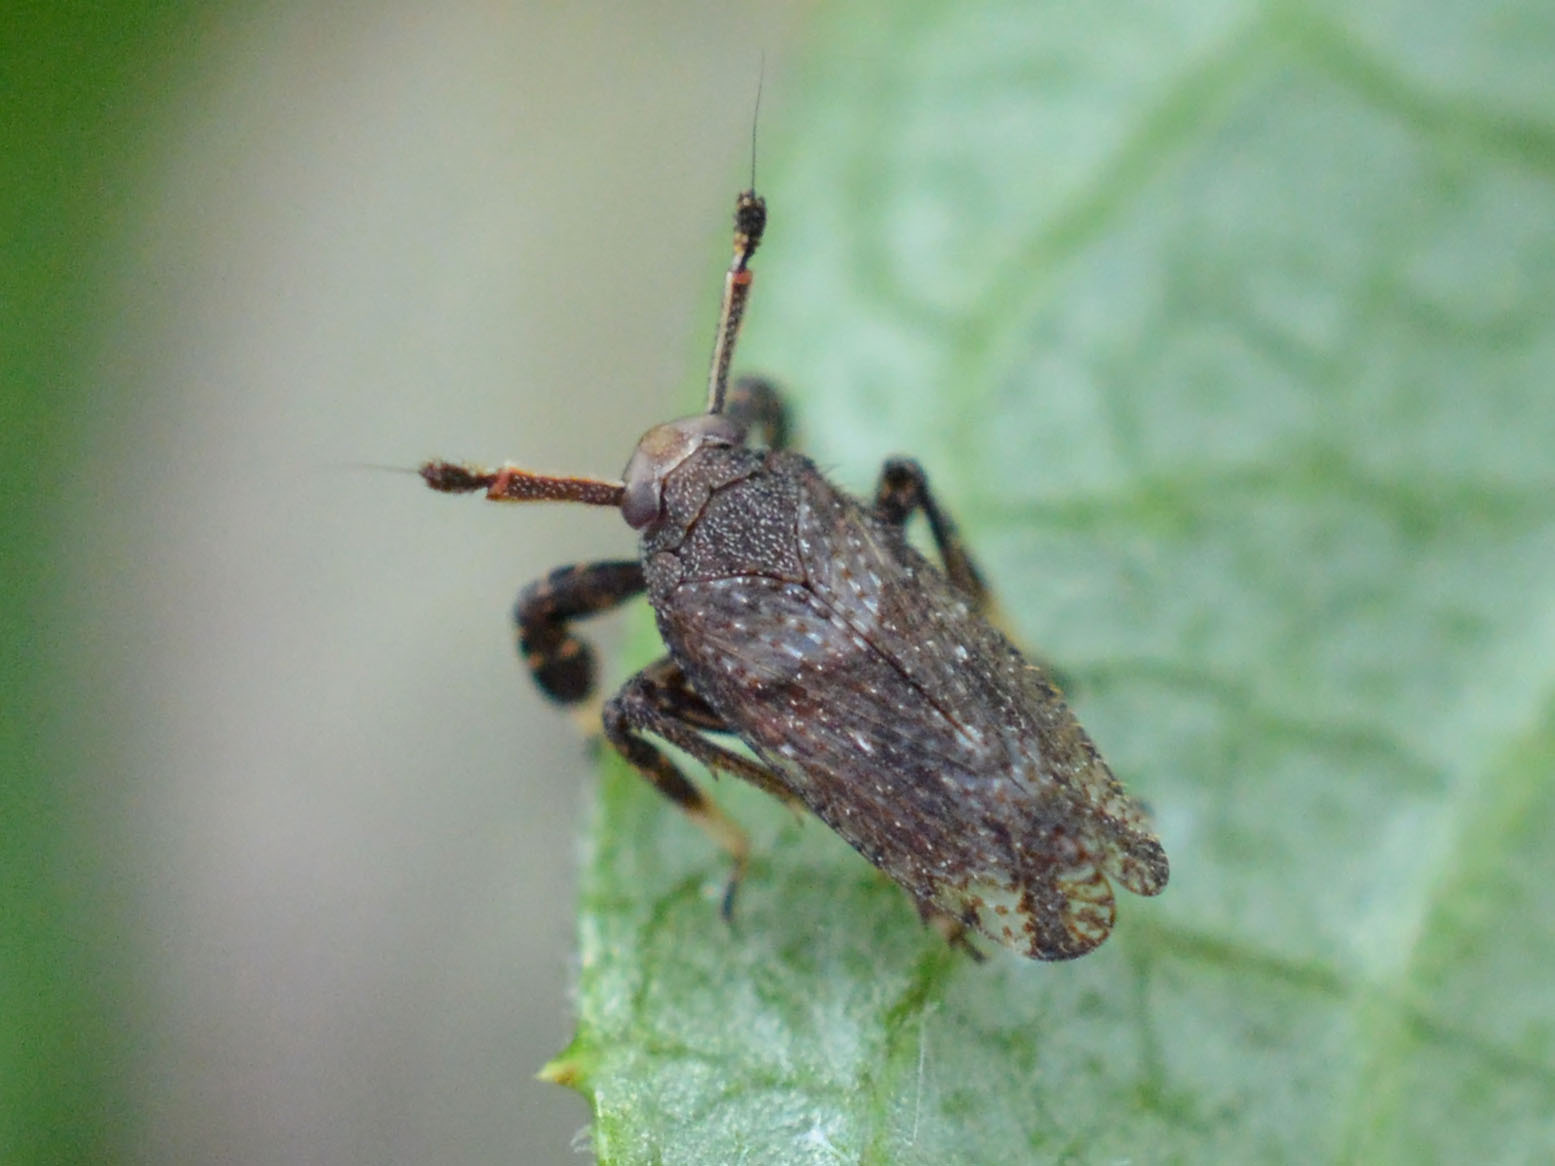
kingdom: Animalia
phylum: Arthropoda
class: Insecta
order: Hemiptera
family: Delphacidae
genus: Asiraca
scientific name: Asiraca clavicornis
